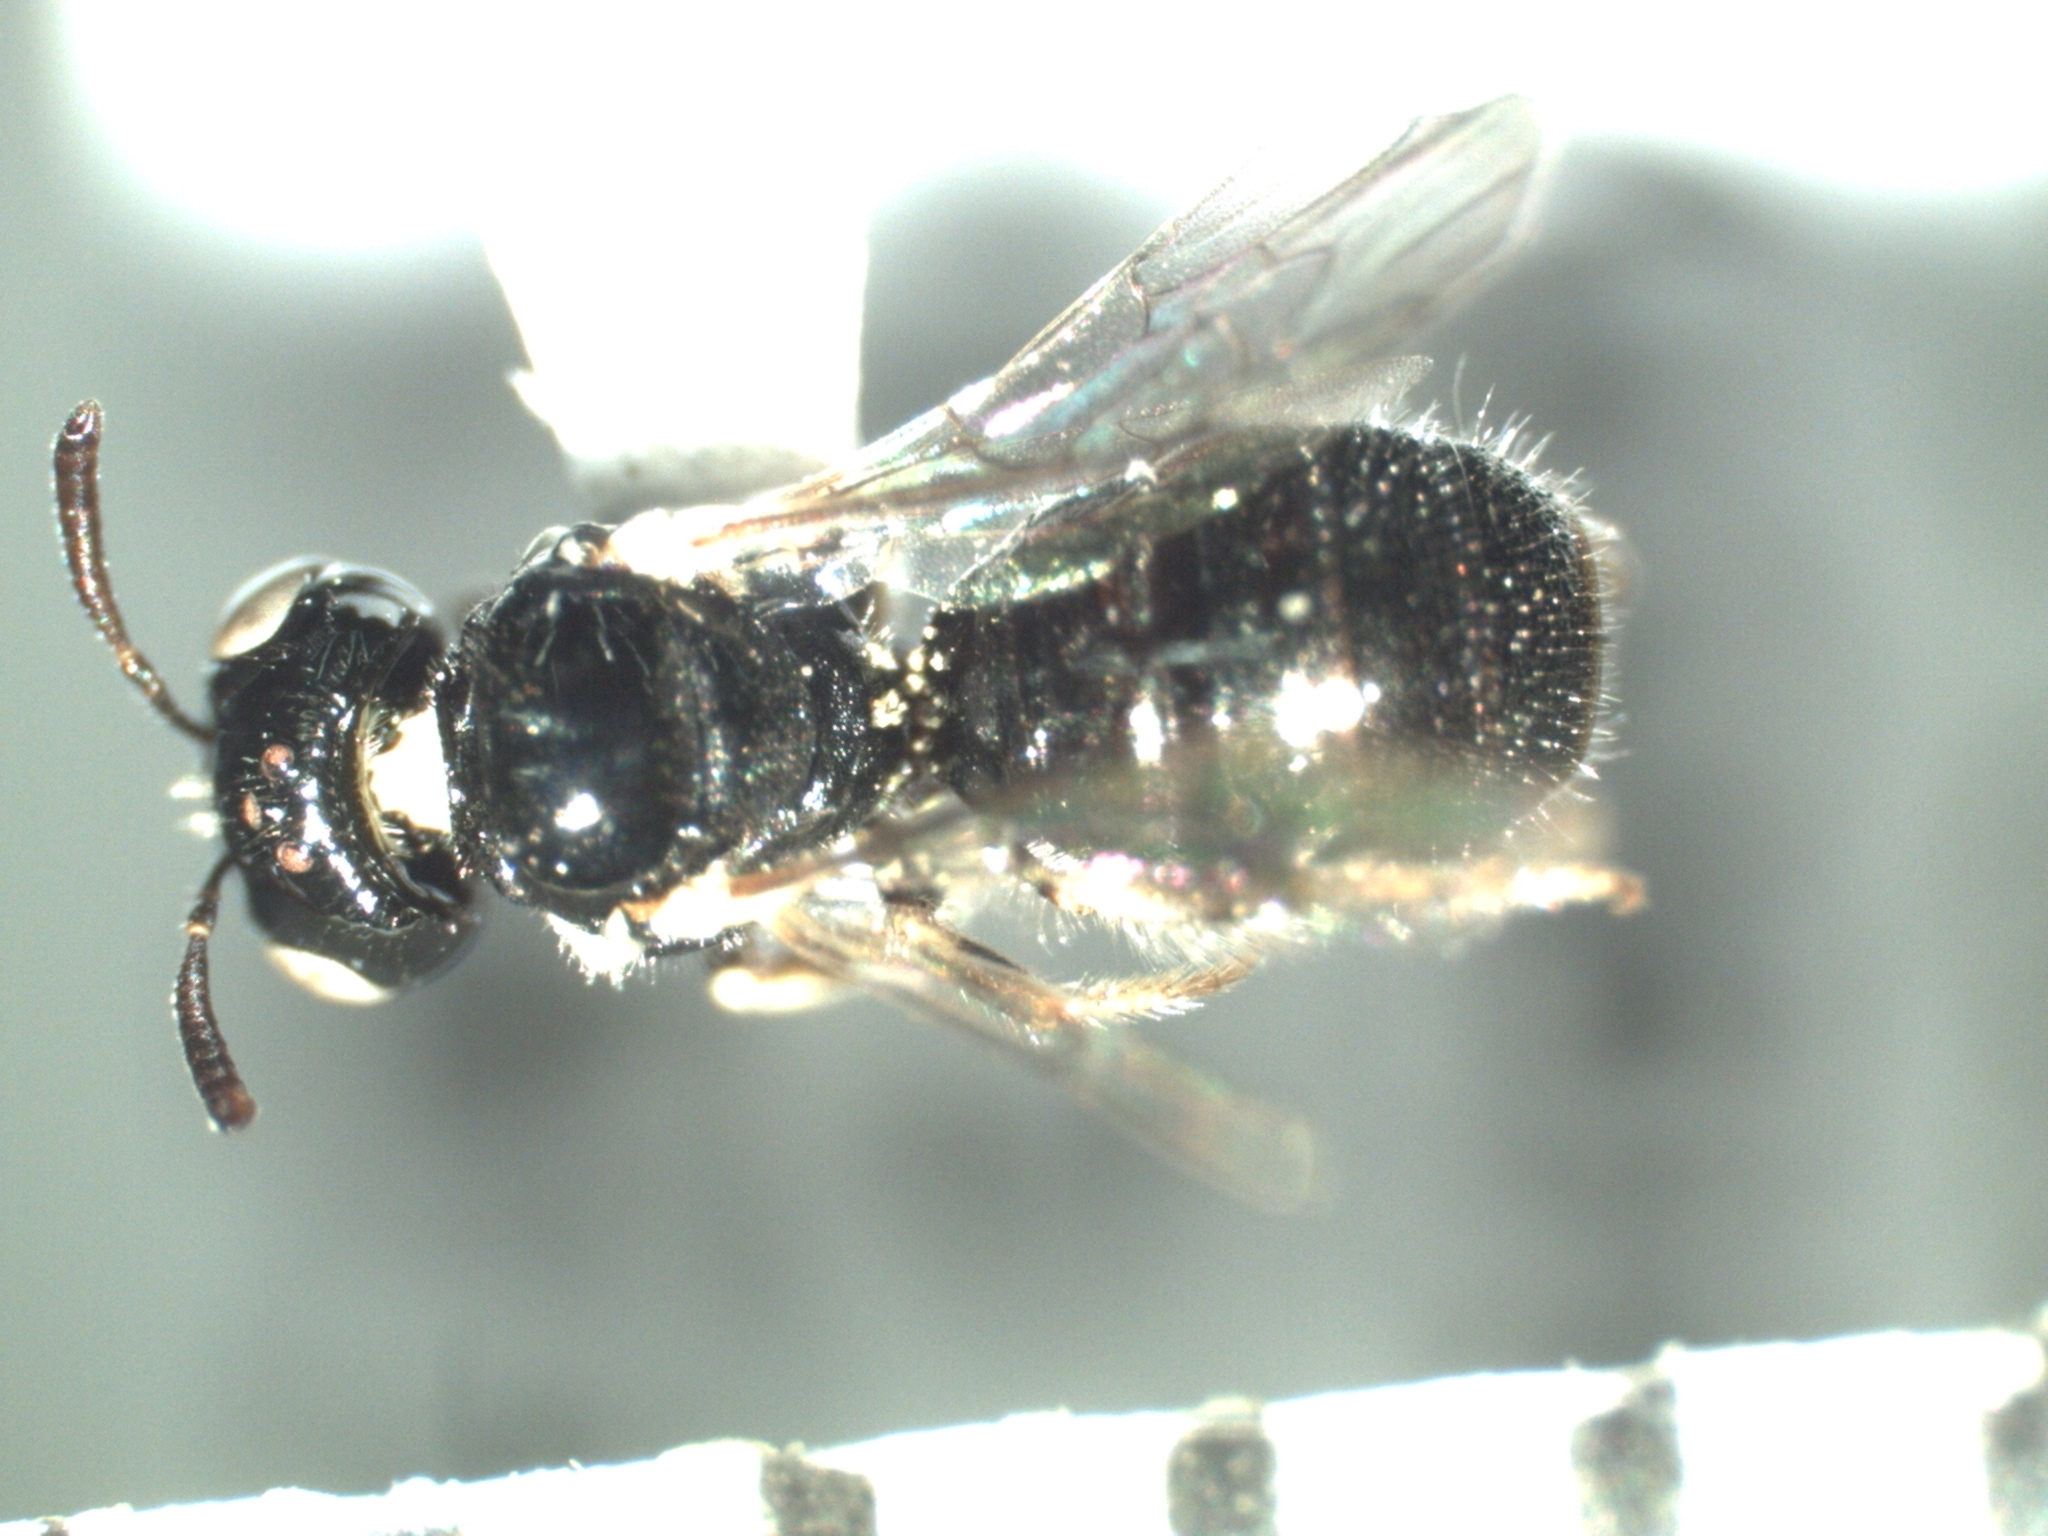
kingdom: Animalia
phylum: Arthropoda
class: Insecta
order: Hymenoptera
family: Apidae
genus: Ceratina
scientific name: Ceratina arizonensis
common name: Arizona small carpenter bee
